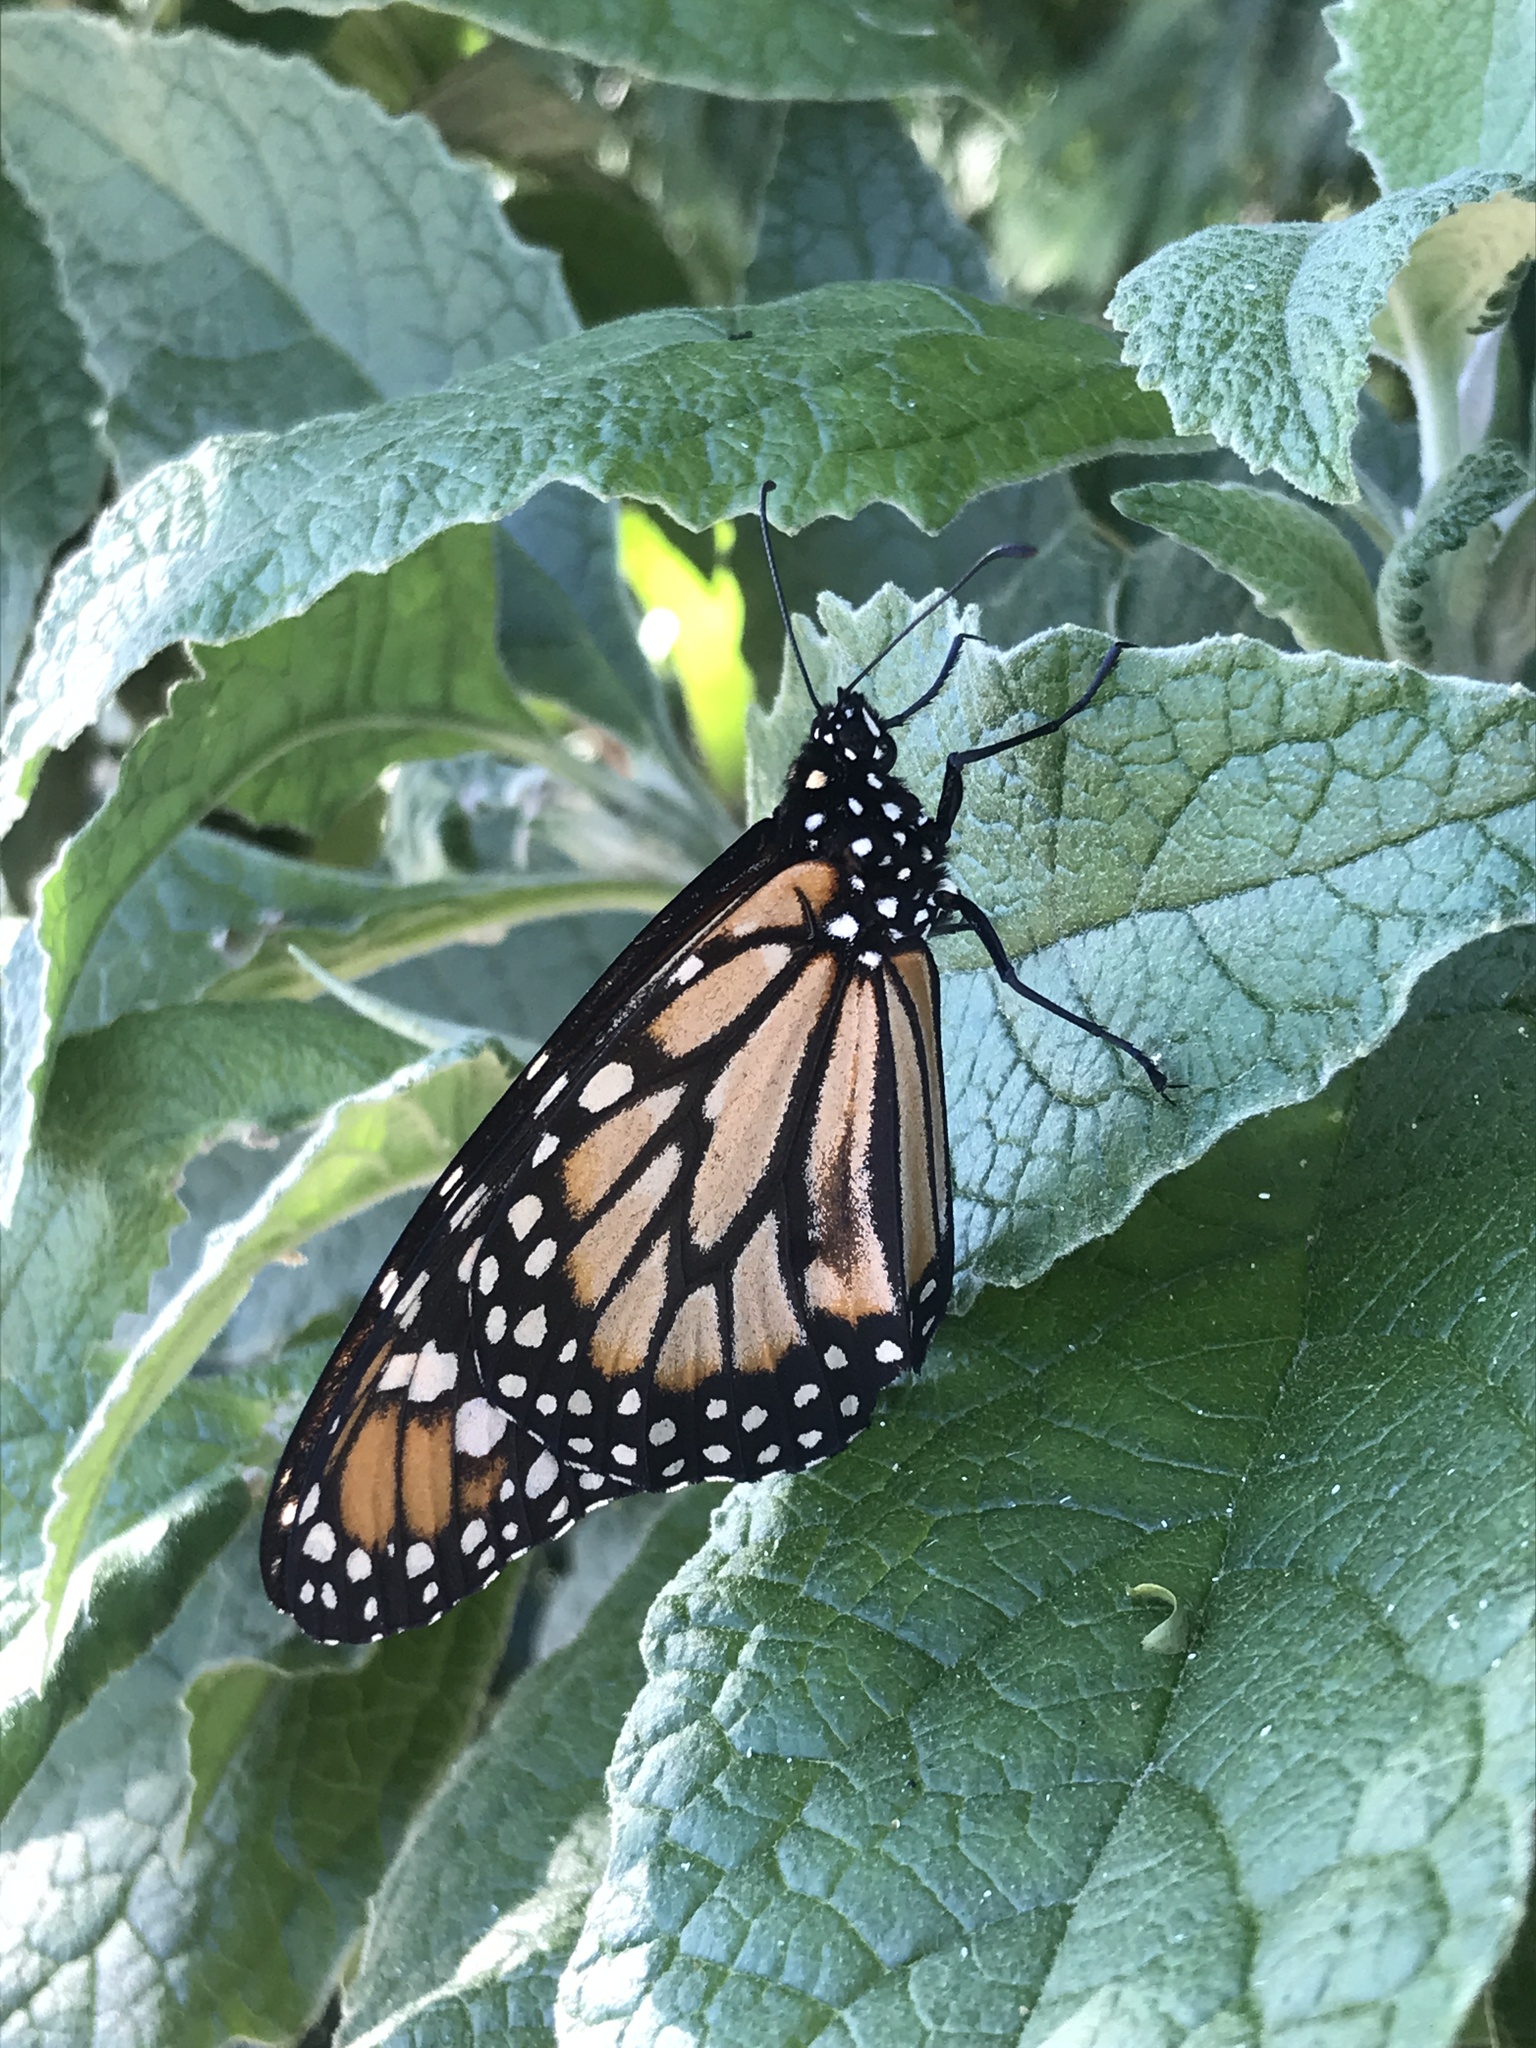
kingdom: Animalia
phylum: Arthropoda
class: Insecta
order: Lepidoptera
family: Nymphalidae
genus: Danaus
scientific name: Danaus erippus
